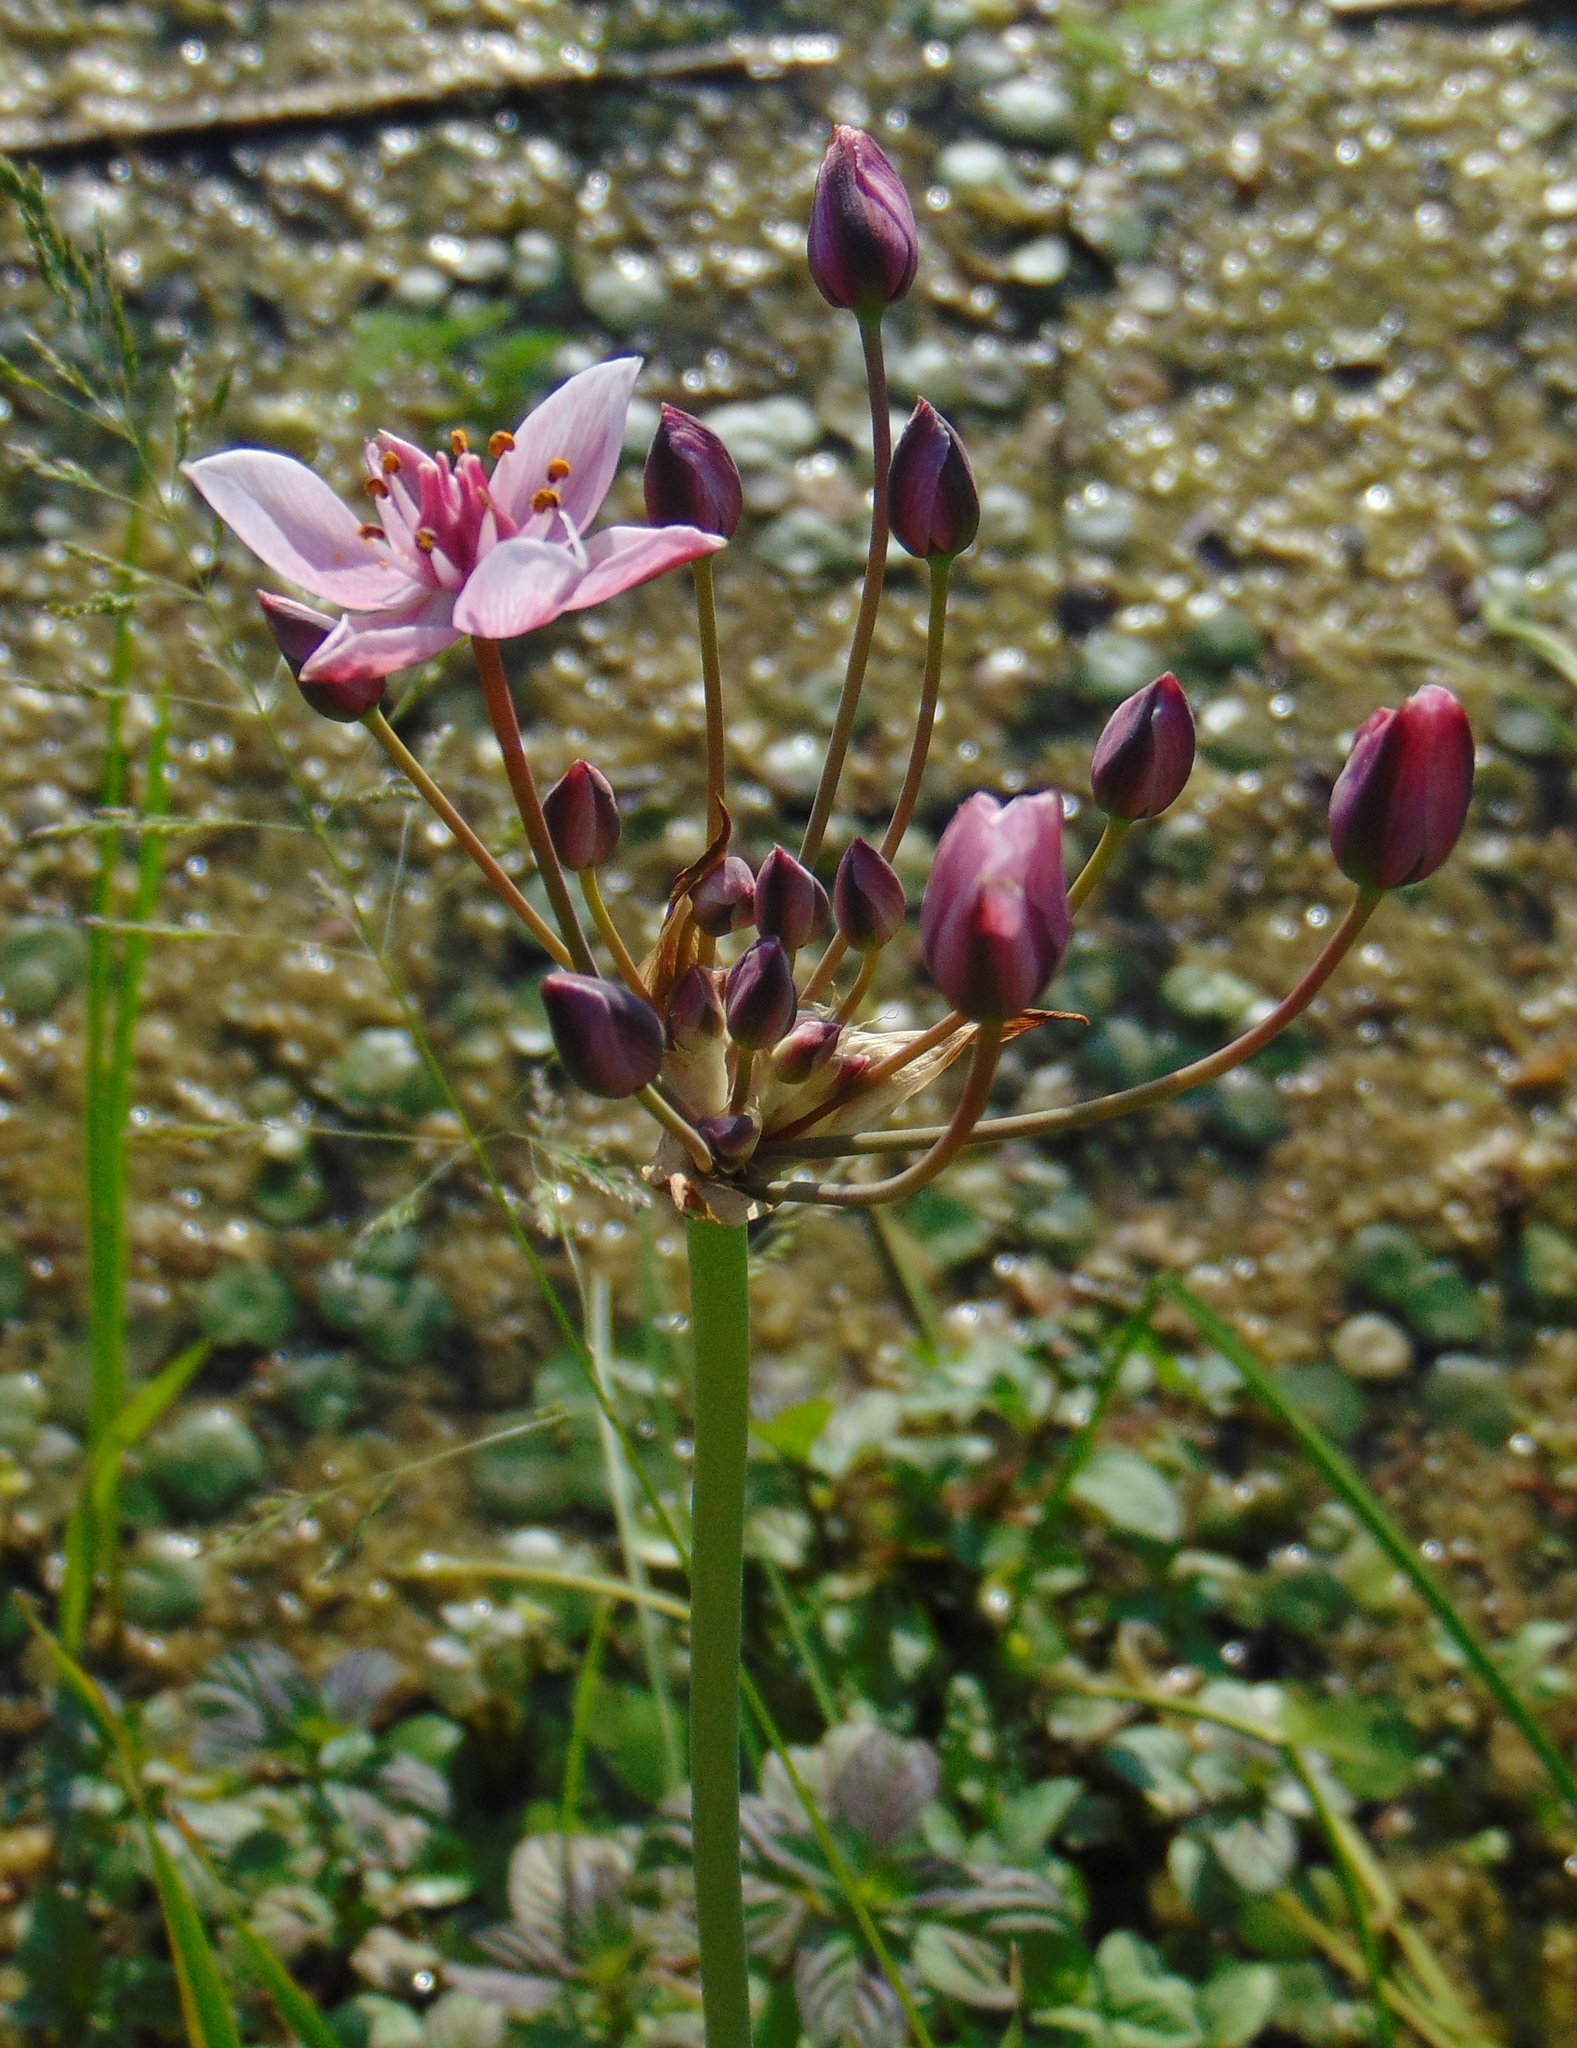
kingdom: Plantae
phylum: Tracheophyta
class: Liliopsida
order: Alismatales
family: Butomaceae
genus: Butomus
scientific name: Butomus umbellatus
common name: Flowering-rush
